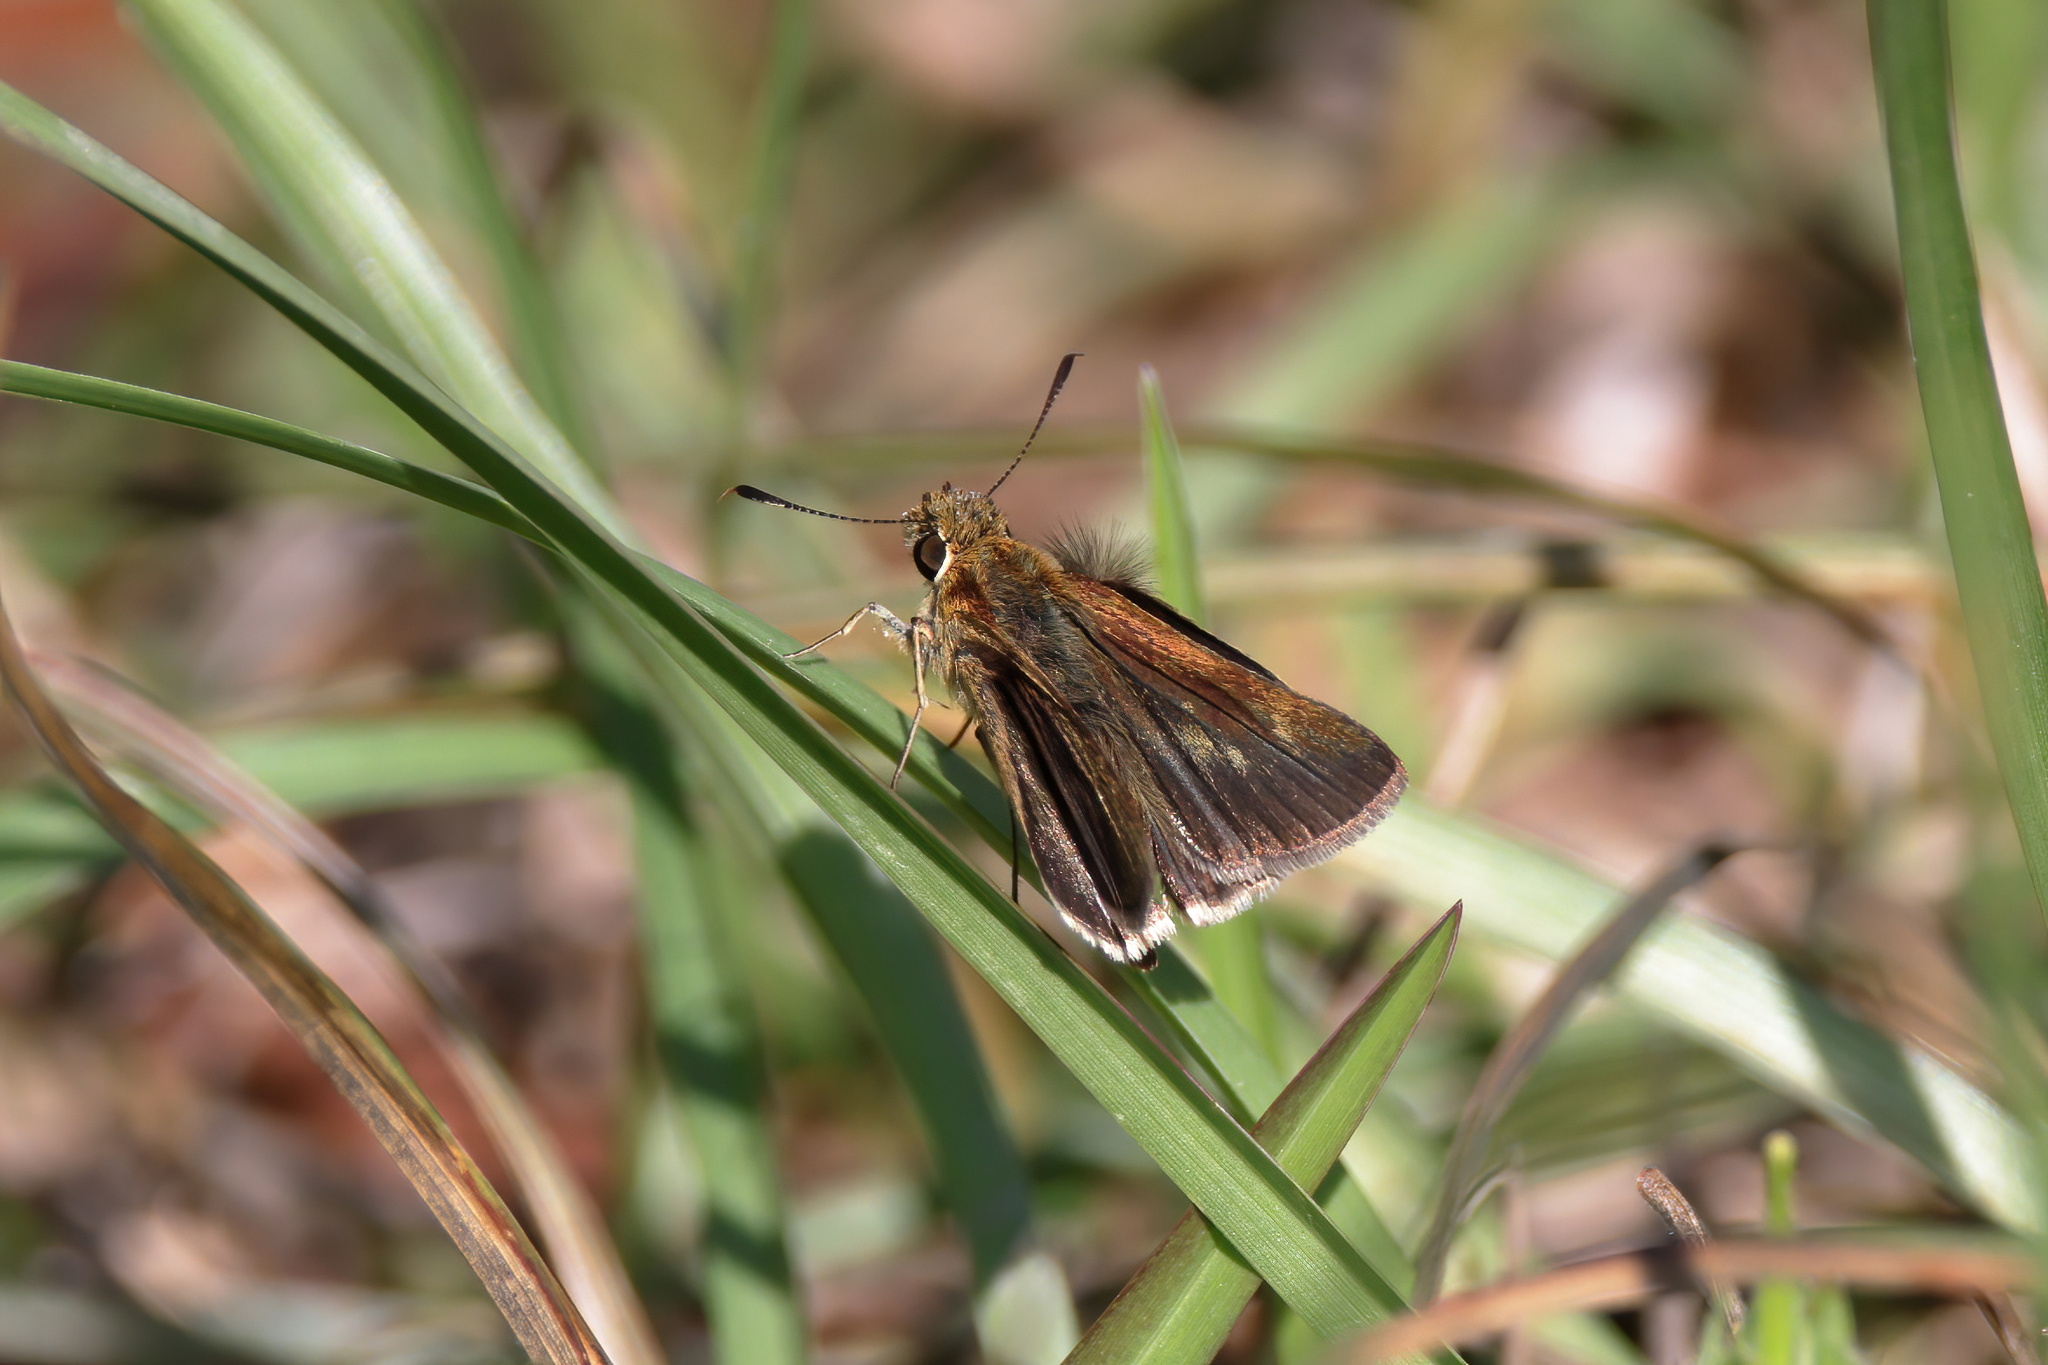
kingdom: Animalia
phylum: Arthropoda
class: Insecta
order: Lepidoptera
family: Hesperiidae
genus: Nastra
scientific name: Nastra
